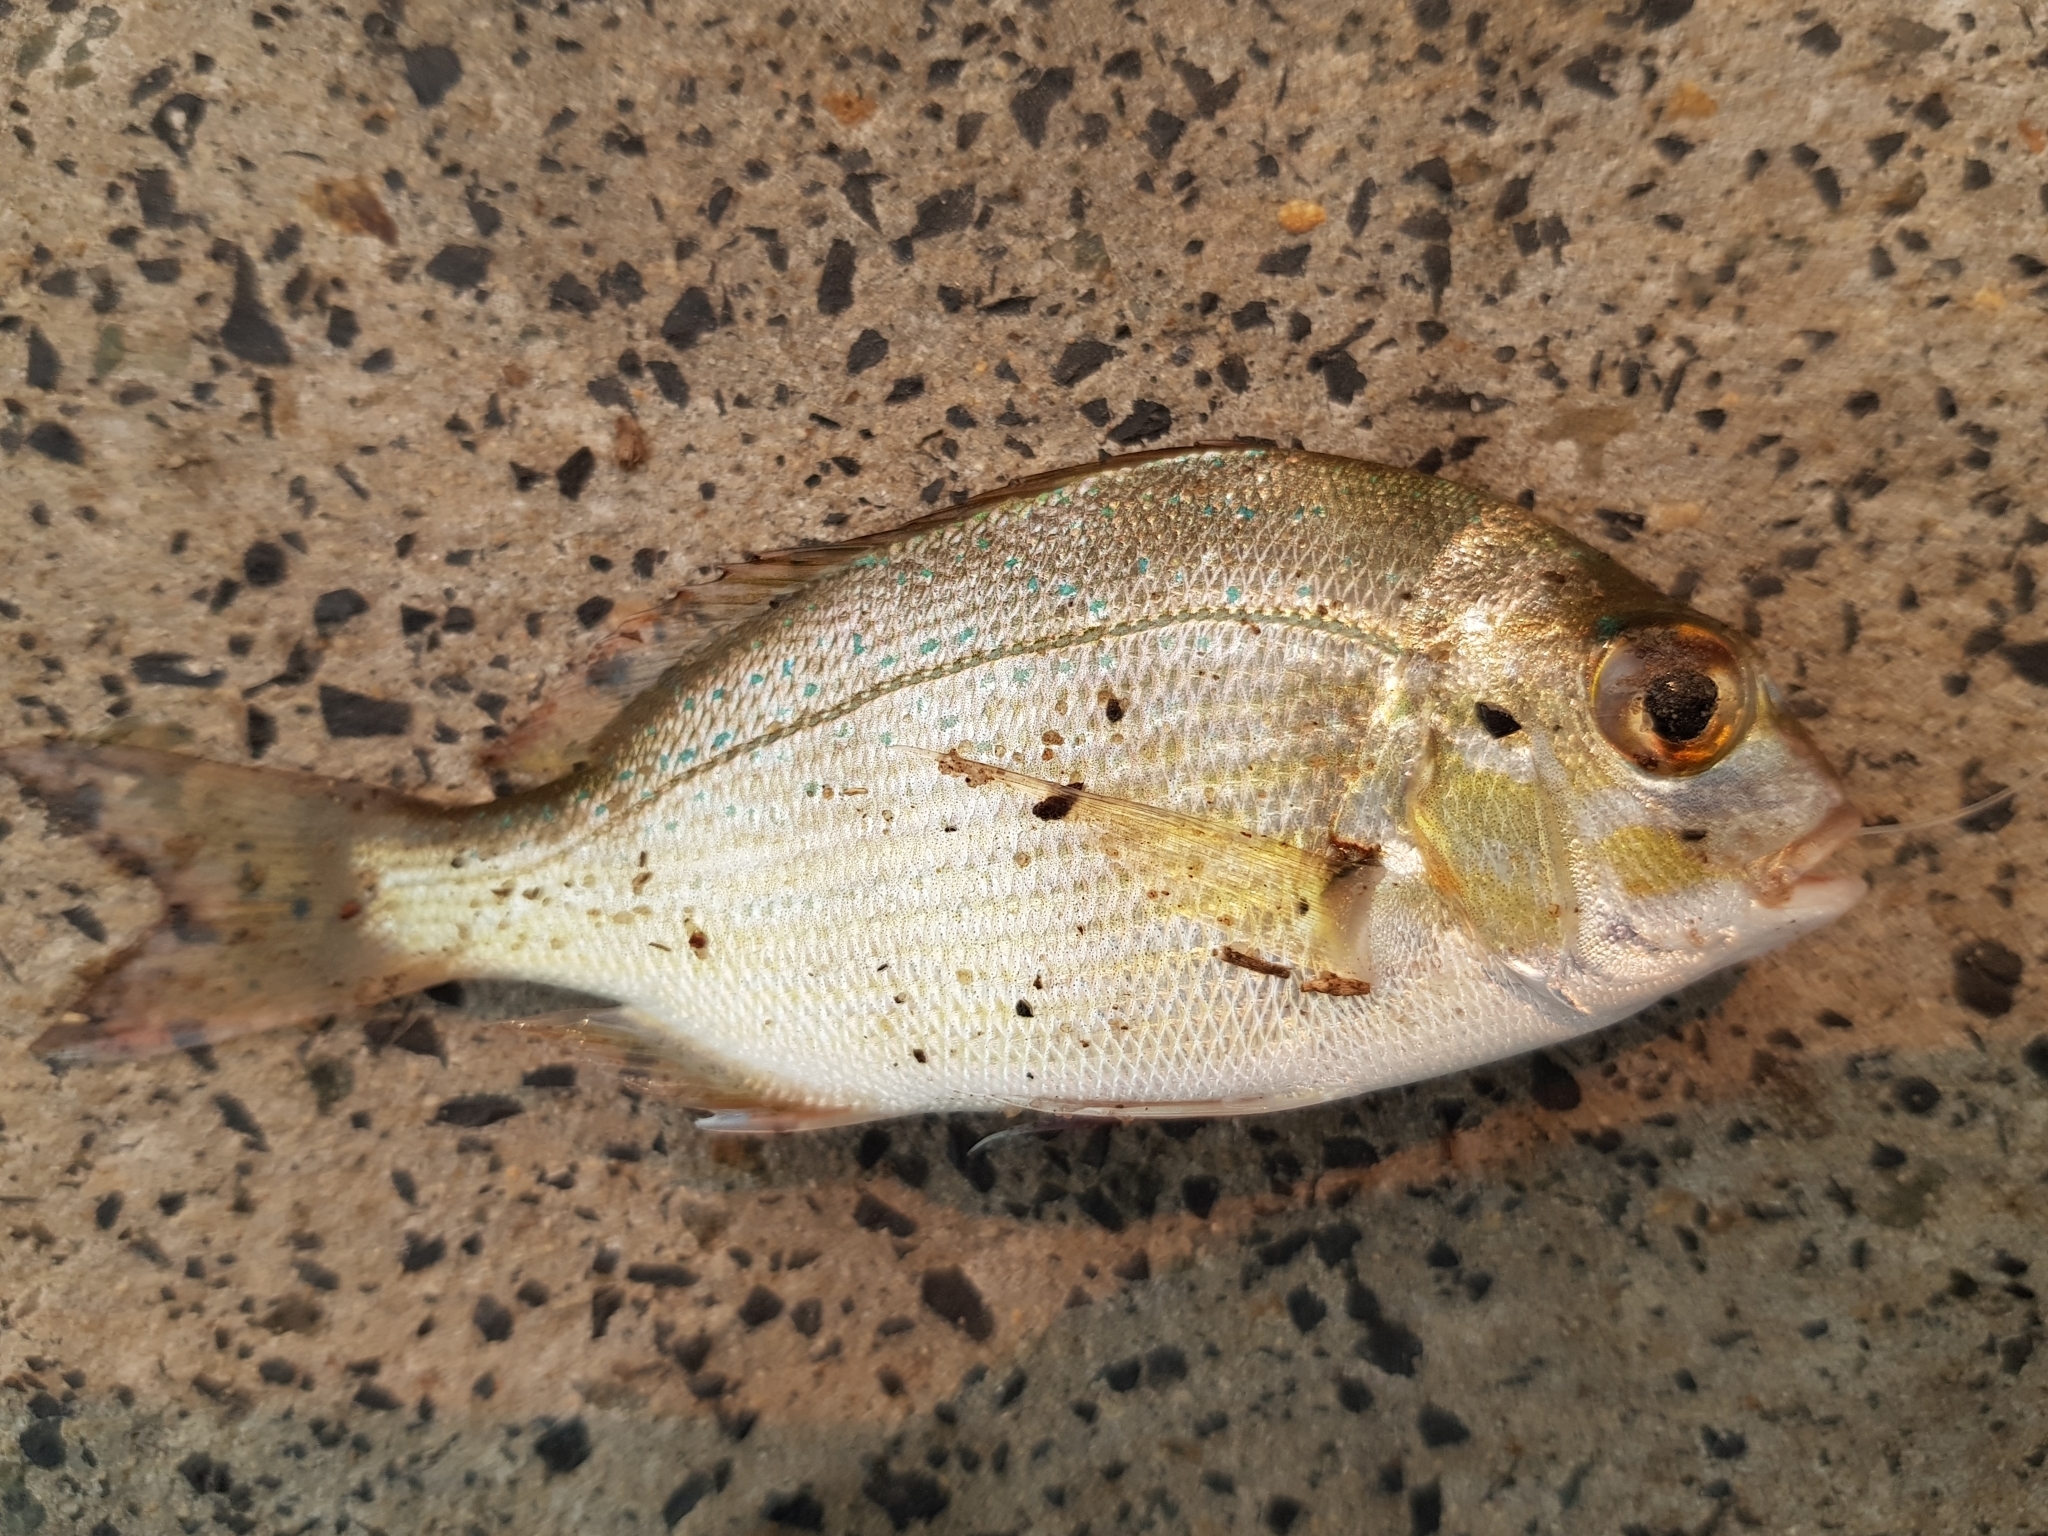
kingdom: Animalia
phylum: Chordata
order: Perciformes
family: Sparidae
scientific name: Sparidae
